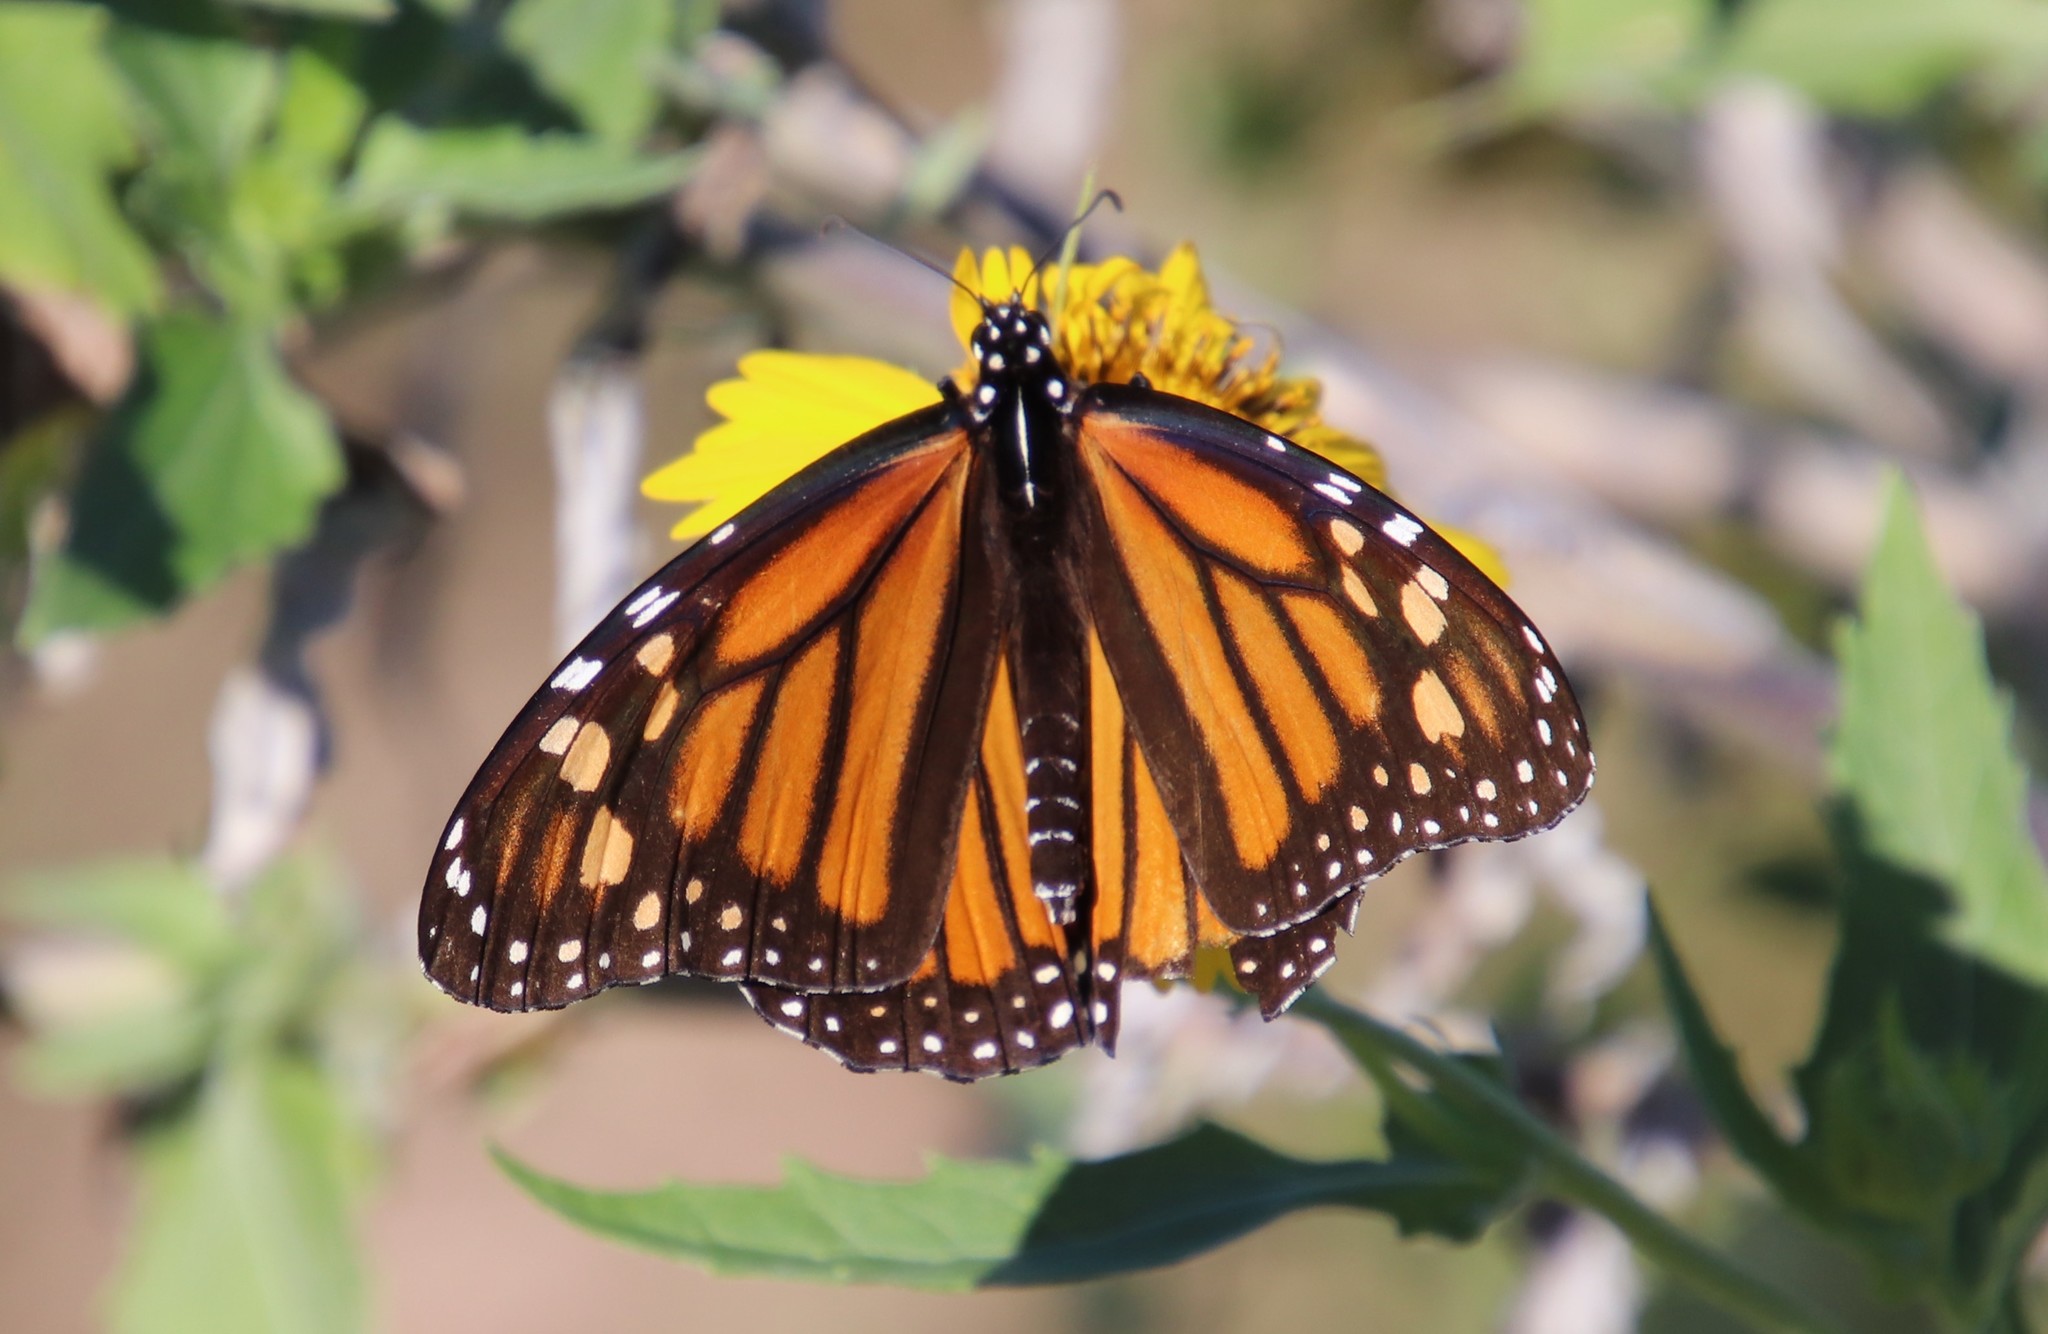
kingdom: Animalia
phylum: Arthropoda
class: Insecta
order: Lepidoptera
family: Nymphalidae
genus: Danaus
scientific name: Danaus plexippus
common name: Monarch
